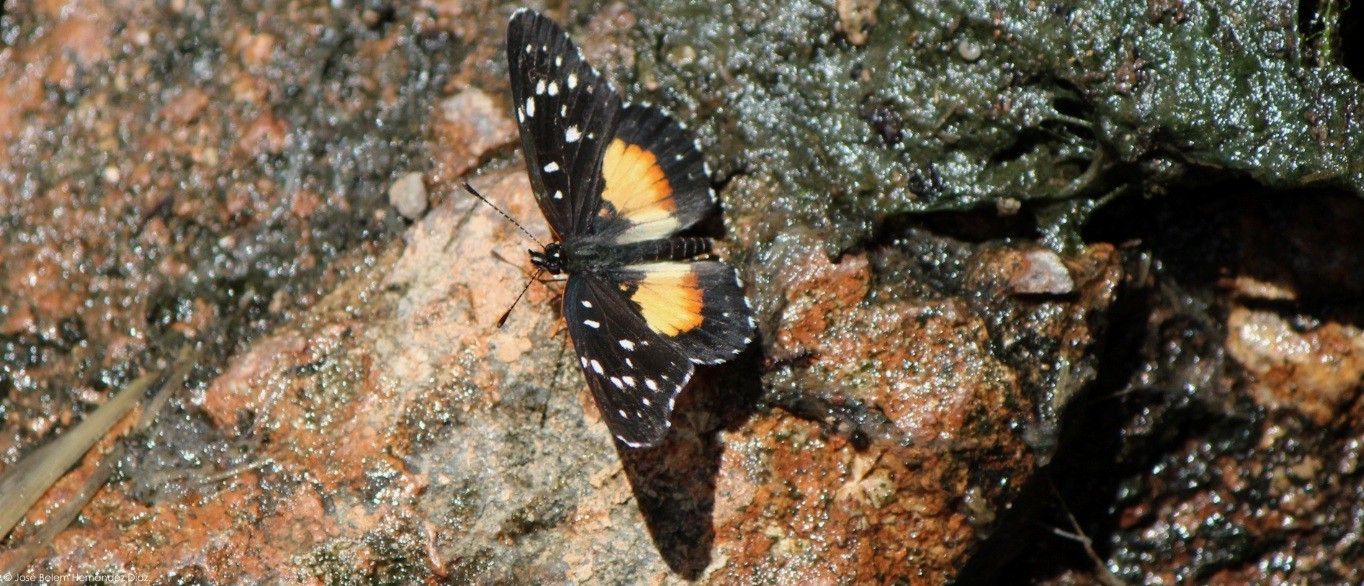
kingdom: Animalia
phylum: Arthropoda
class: Insecta
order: Lepidoptera
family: Nymphalidae
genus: Chlosyne
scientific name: Chlosyne rosita
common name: Rosita patch
